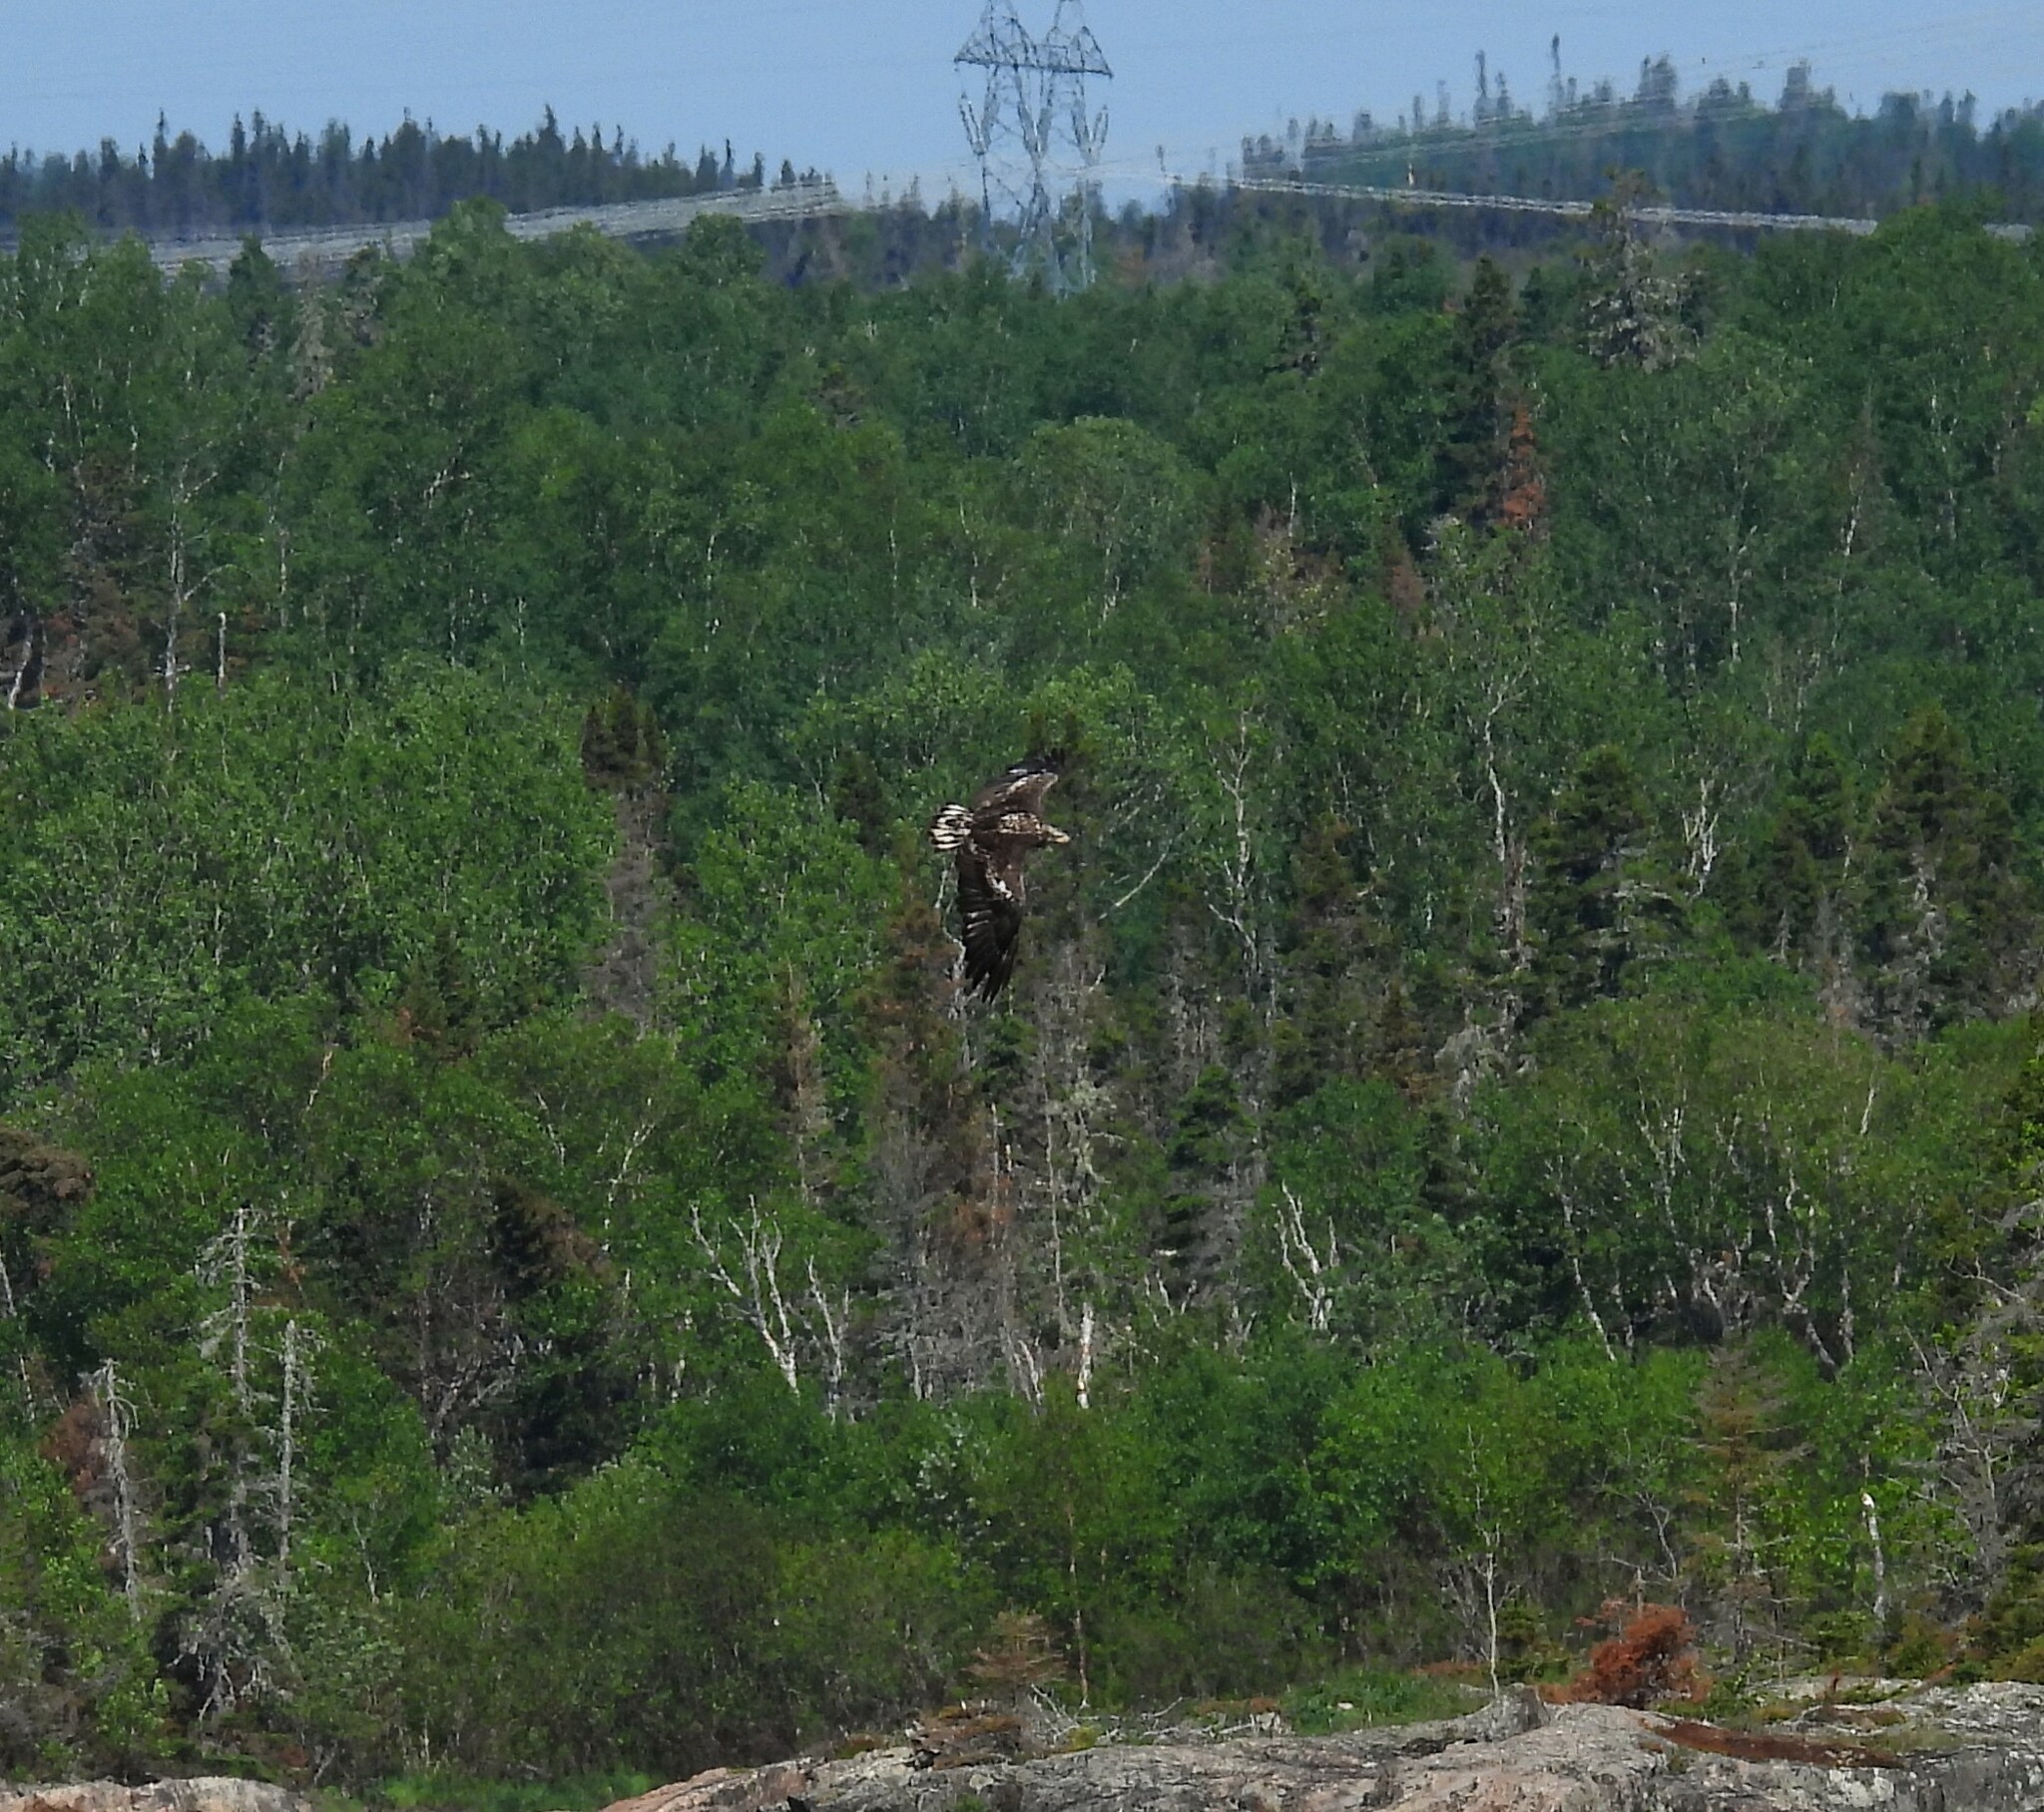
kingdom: Animalia
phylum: Chordata
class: Aves
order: Accipitriformes
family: Accipitridae
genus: Haliaeetus
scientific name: Haliaeetus leucocephalus
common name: Bald eagle
